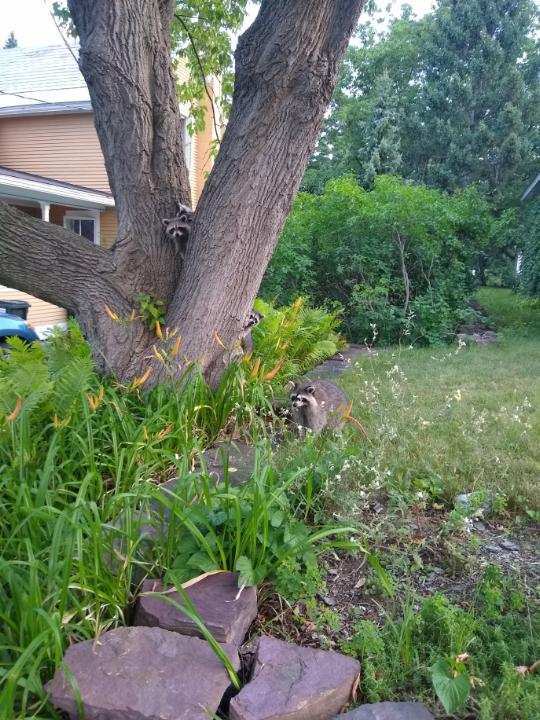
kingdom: Animalia
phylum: Chordata
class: Mammalia
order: Carnivora
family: Procyonidae
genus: Procyon
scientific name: Procyon lotor
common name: Raccoon
